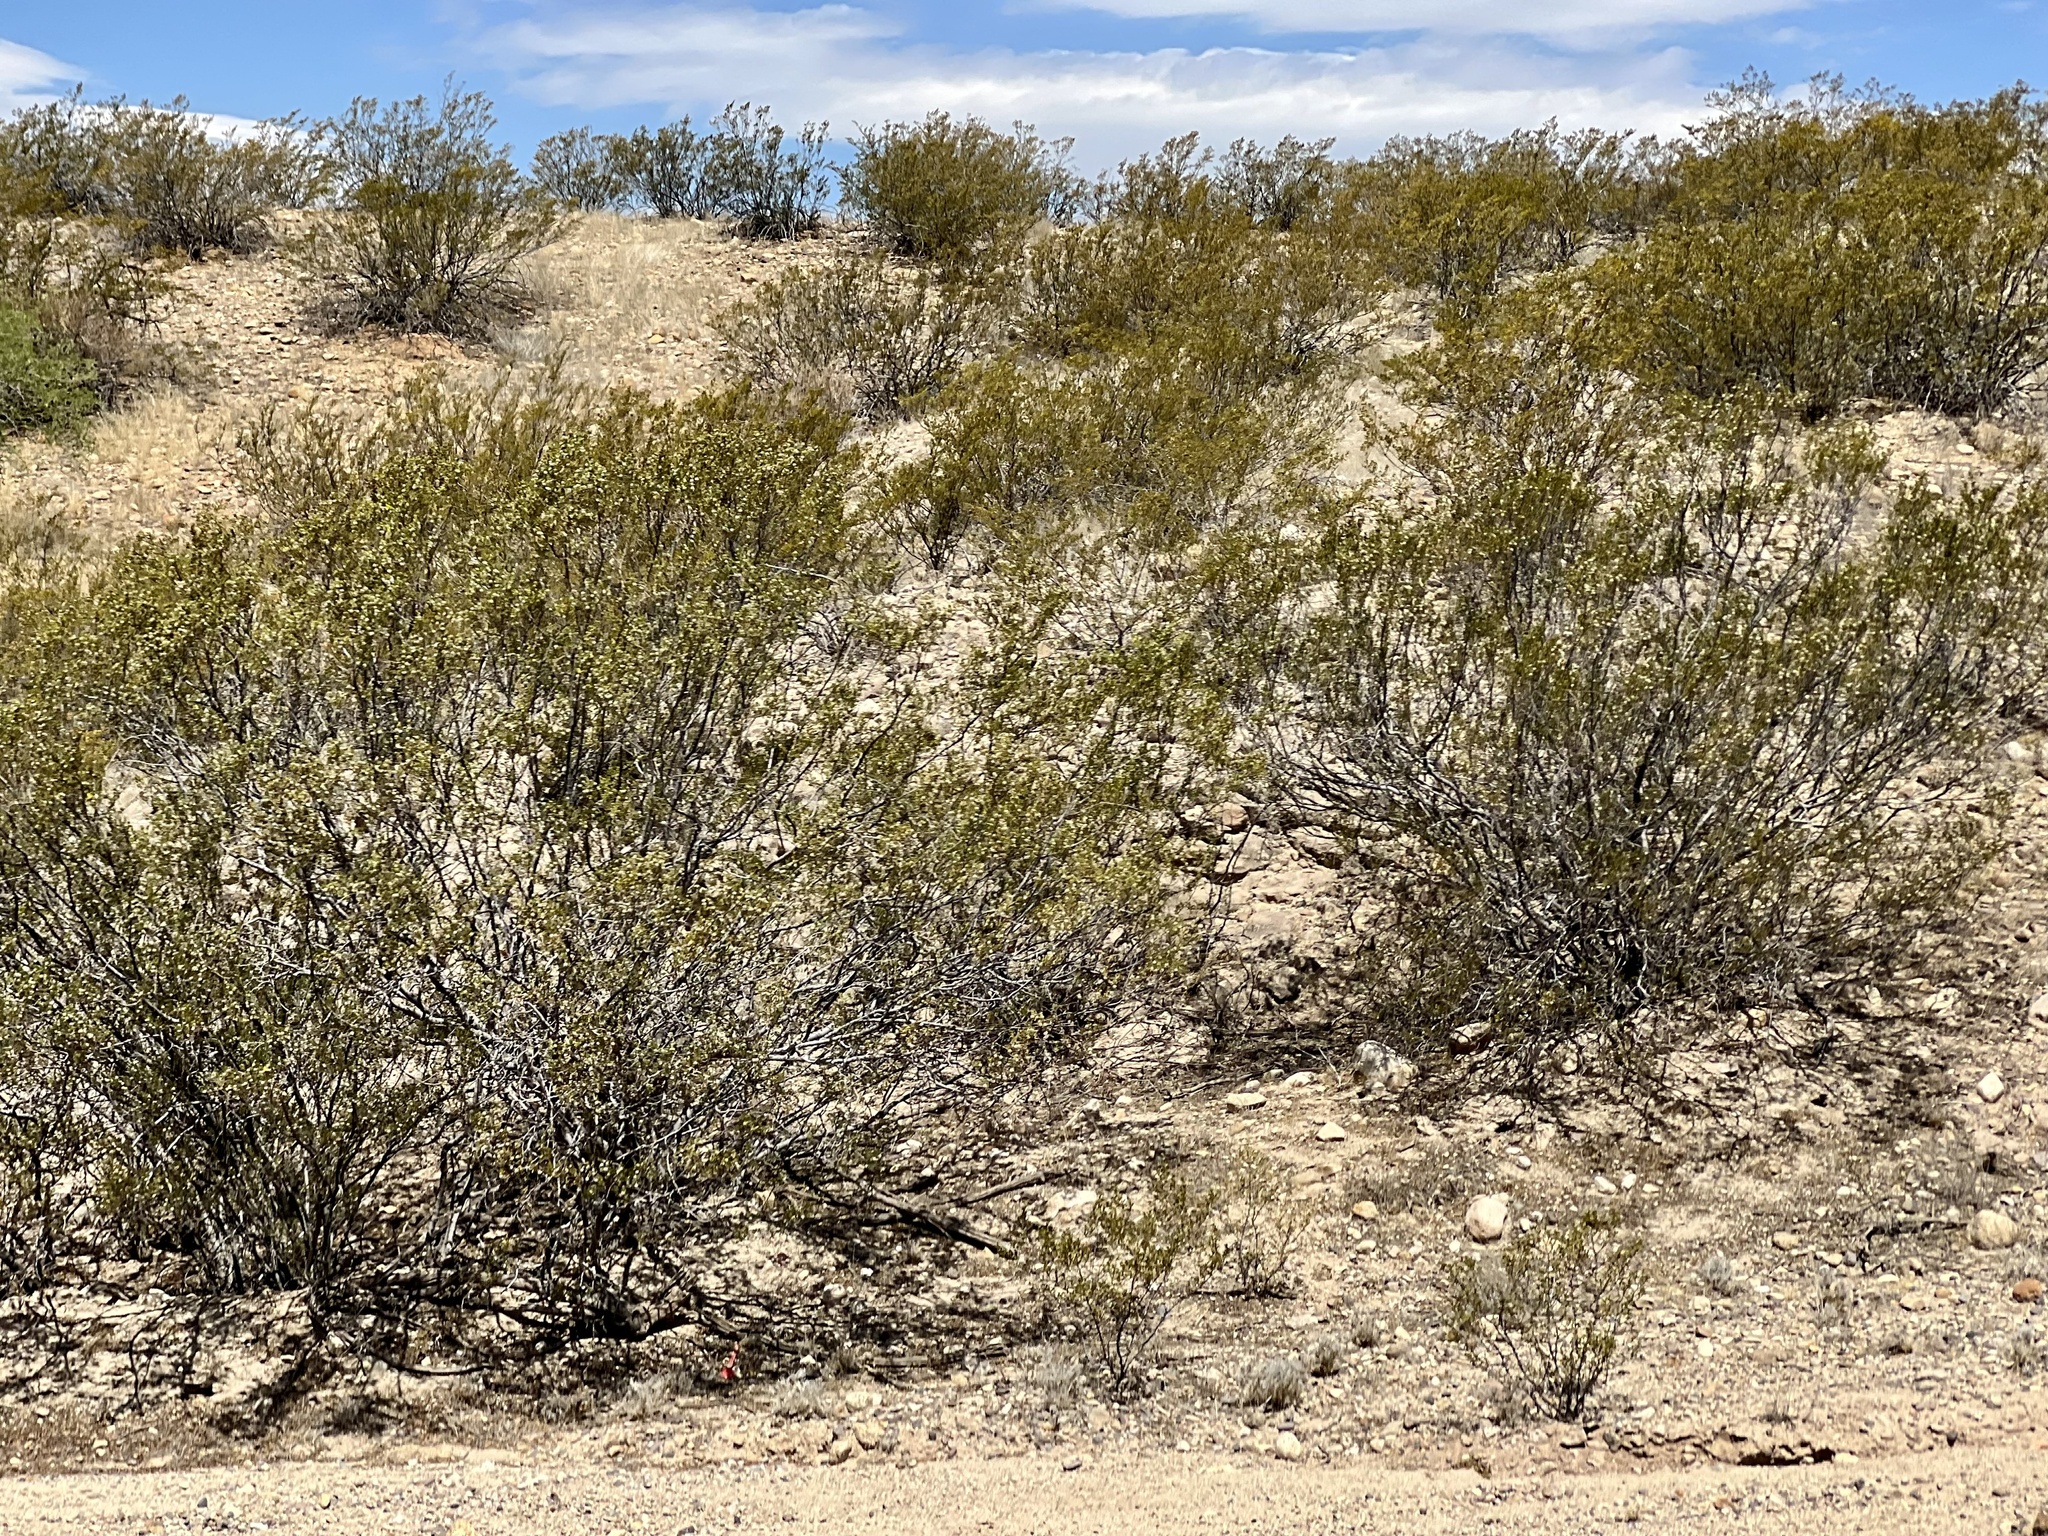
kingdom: Plantae
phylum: Tracheophyta
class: Magnoliopsida
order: Zygophyllales
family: Zygophyllaceae
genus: Larrea
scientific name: Larrea tridentata
